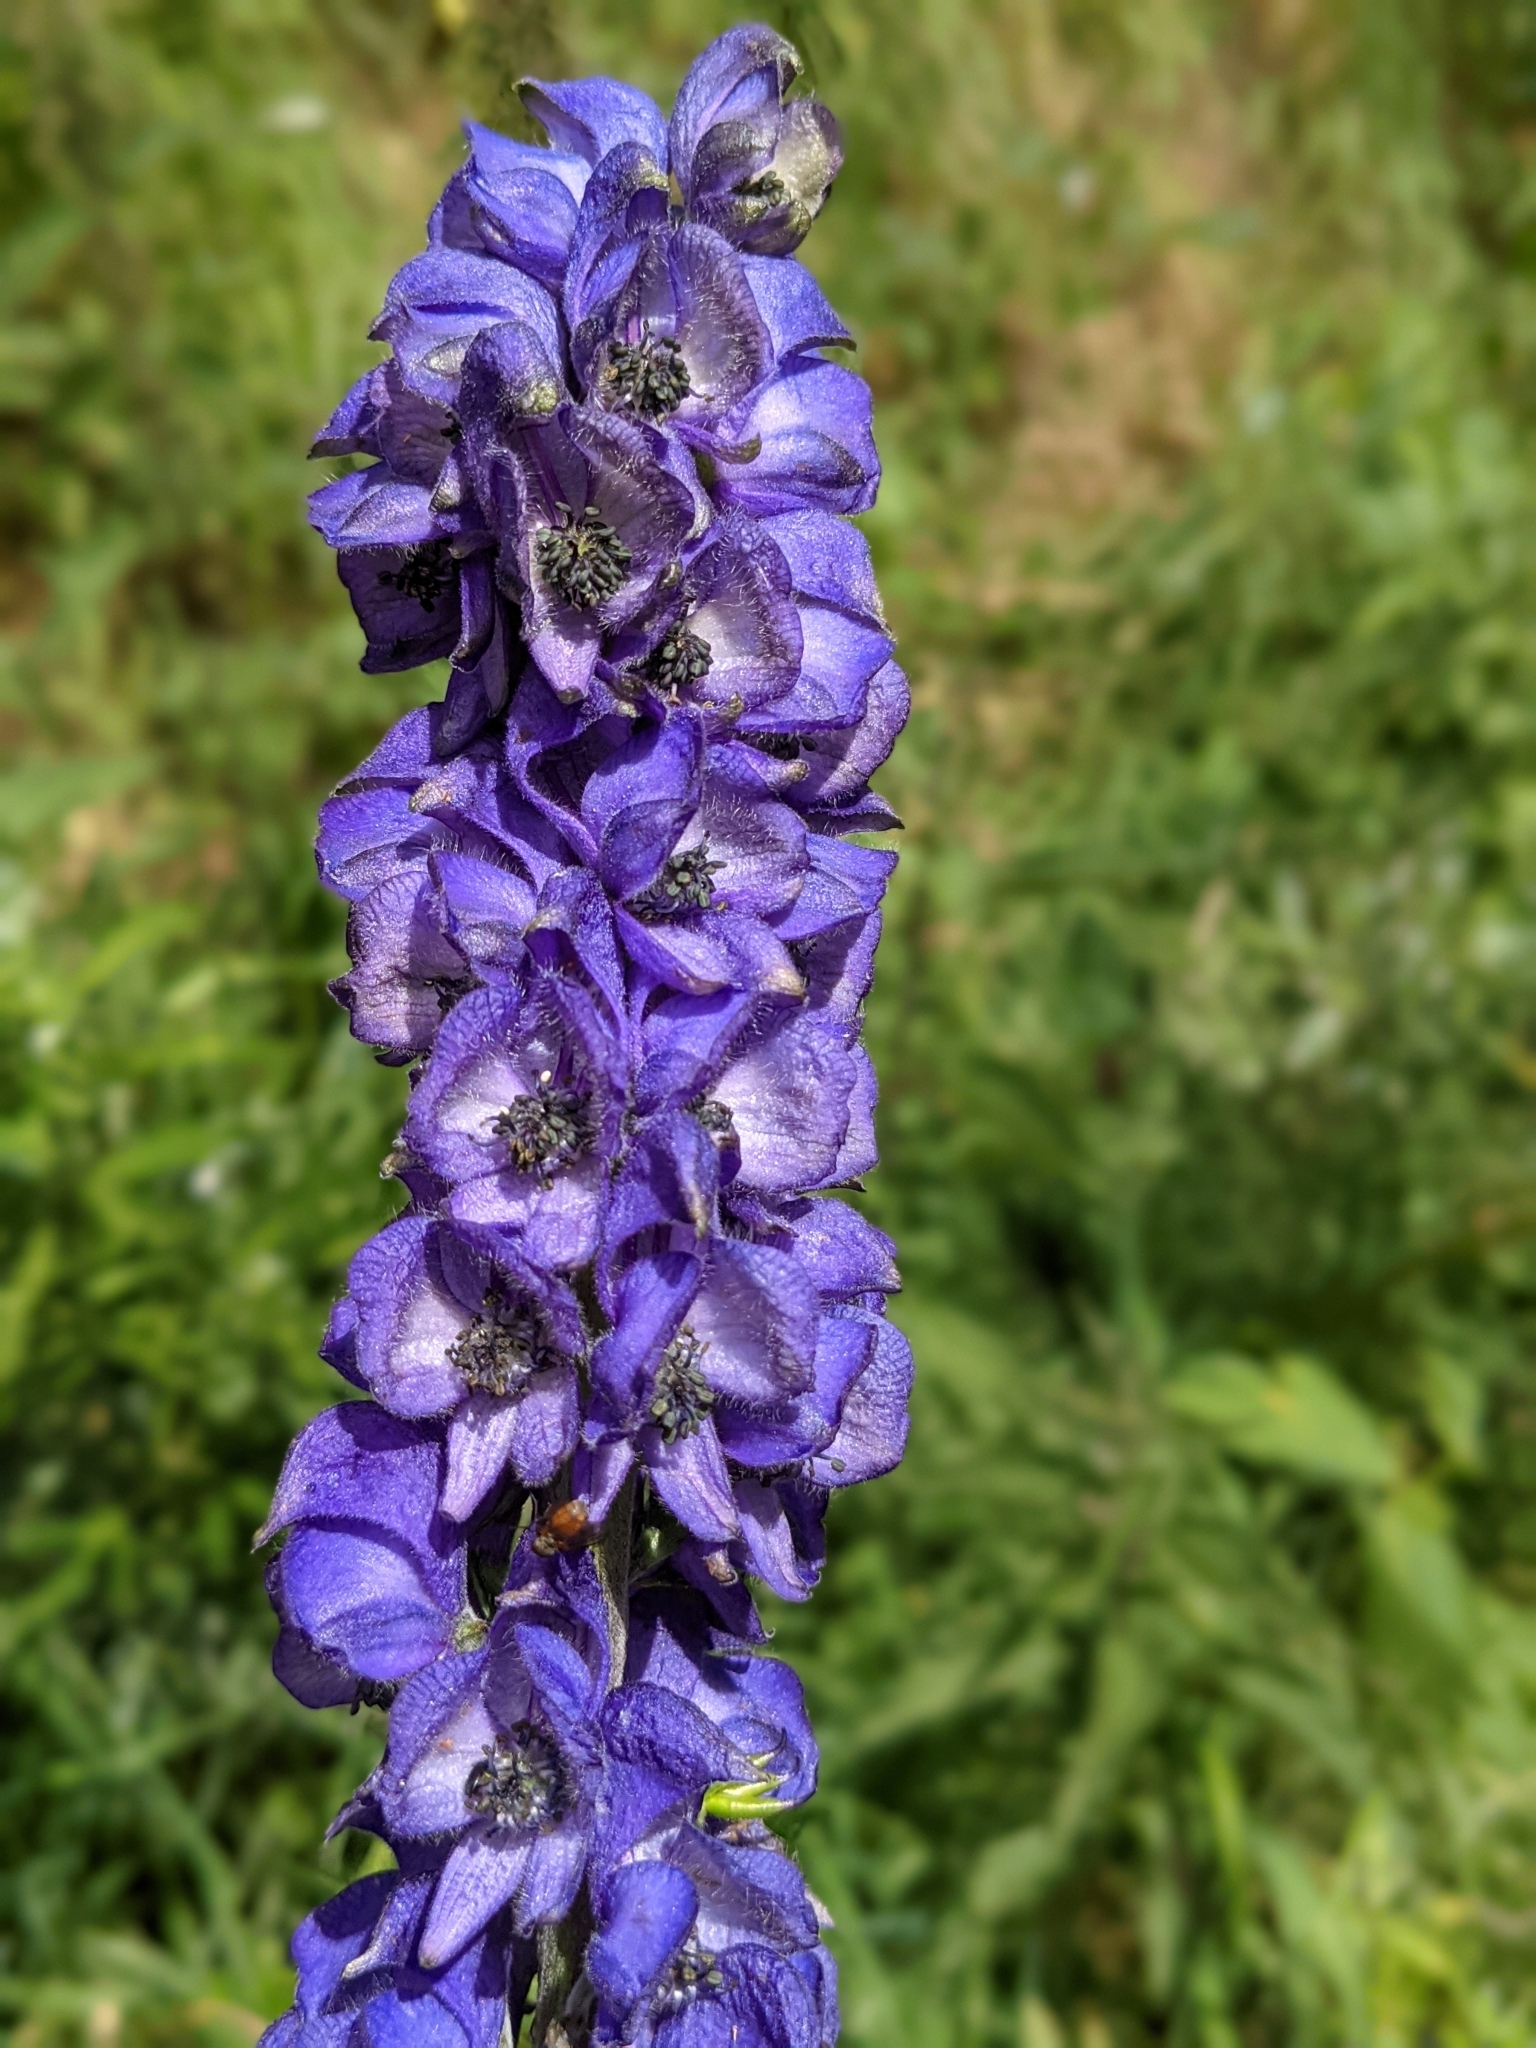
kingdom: Plantae
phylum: Tracheophyta
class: Magnoliopsida
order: Ranunculales
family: Ranunculaceae
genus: Aconitum
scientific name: Aconitum napellus
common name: Garden monkshood
